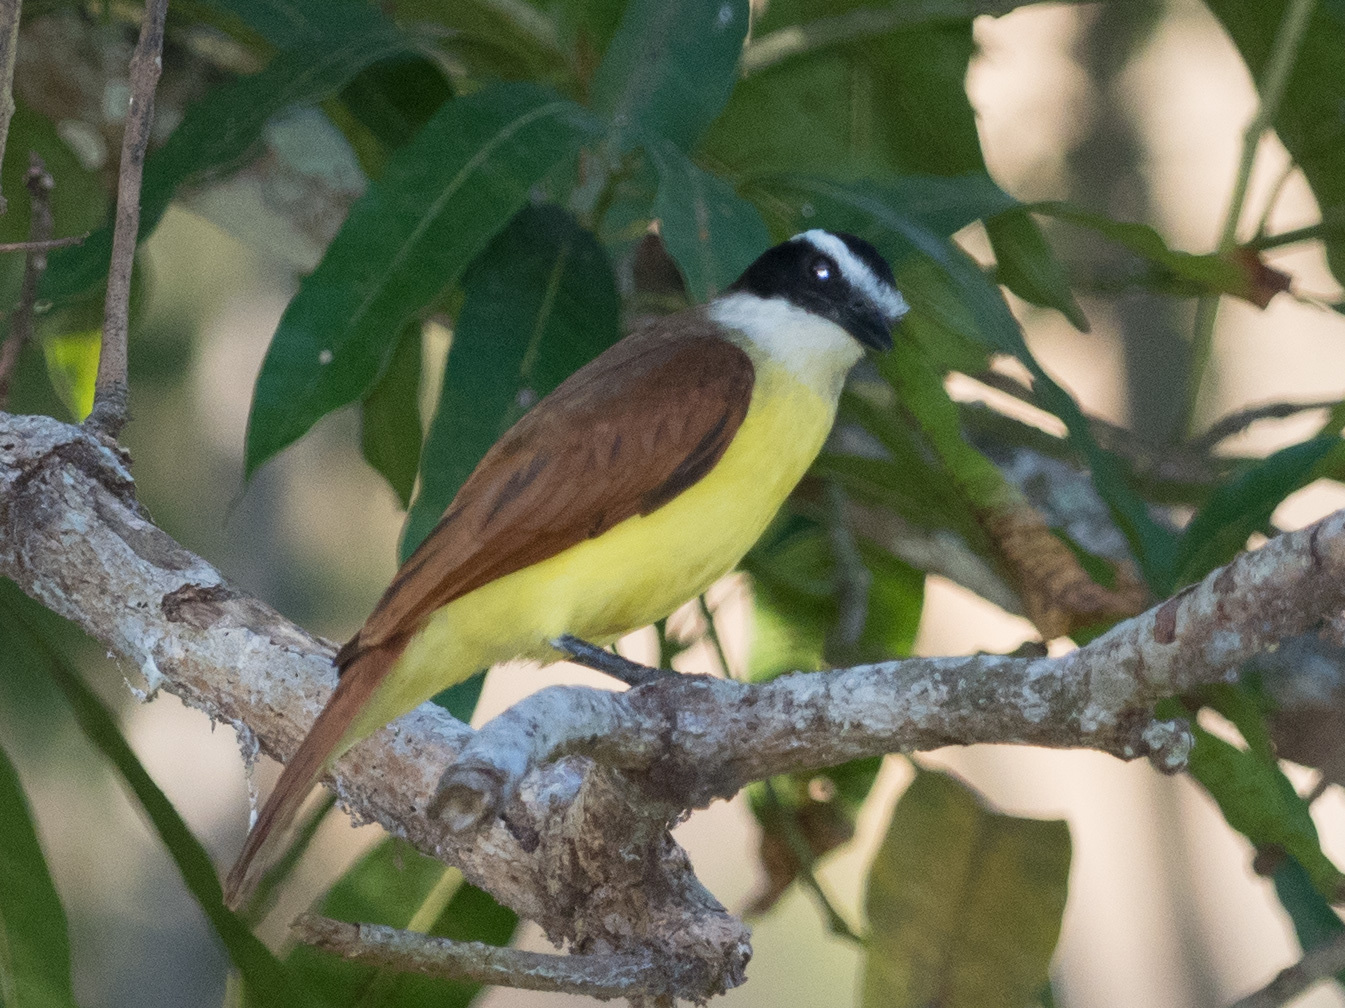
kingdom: Animalia
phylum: Chordata
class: Aves
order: Passeriformes
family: Tyrannidae
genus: Pitangus
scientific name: Pitangus sulphuratus
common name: Great kiskadee
